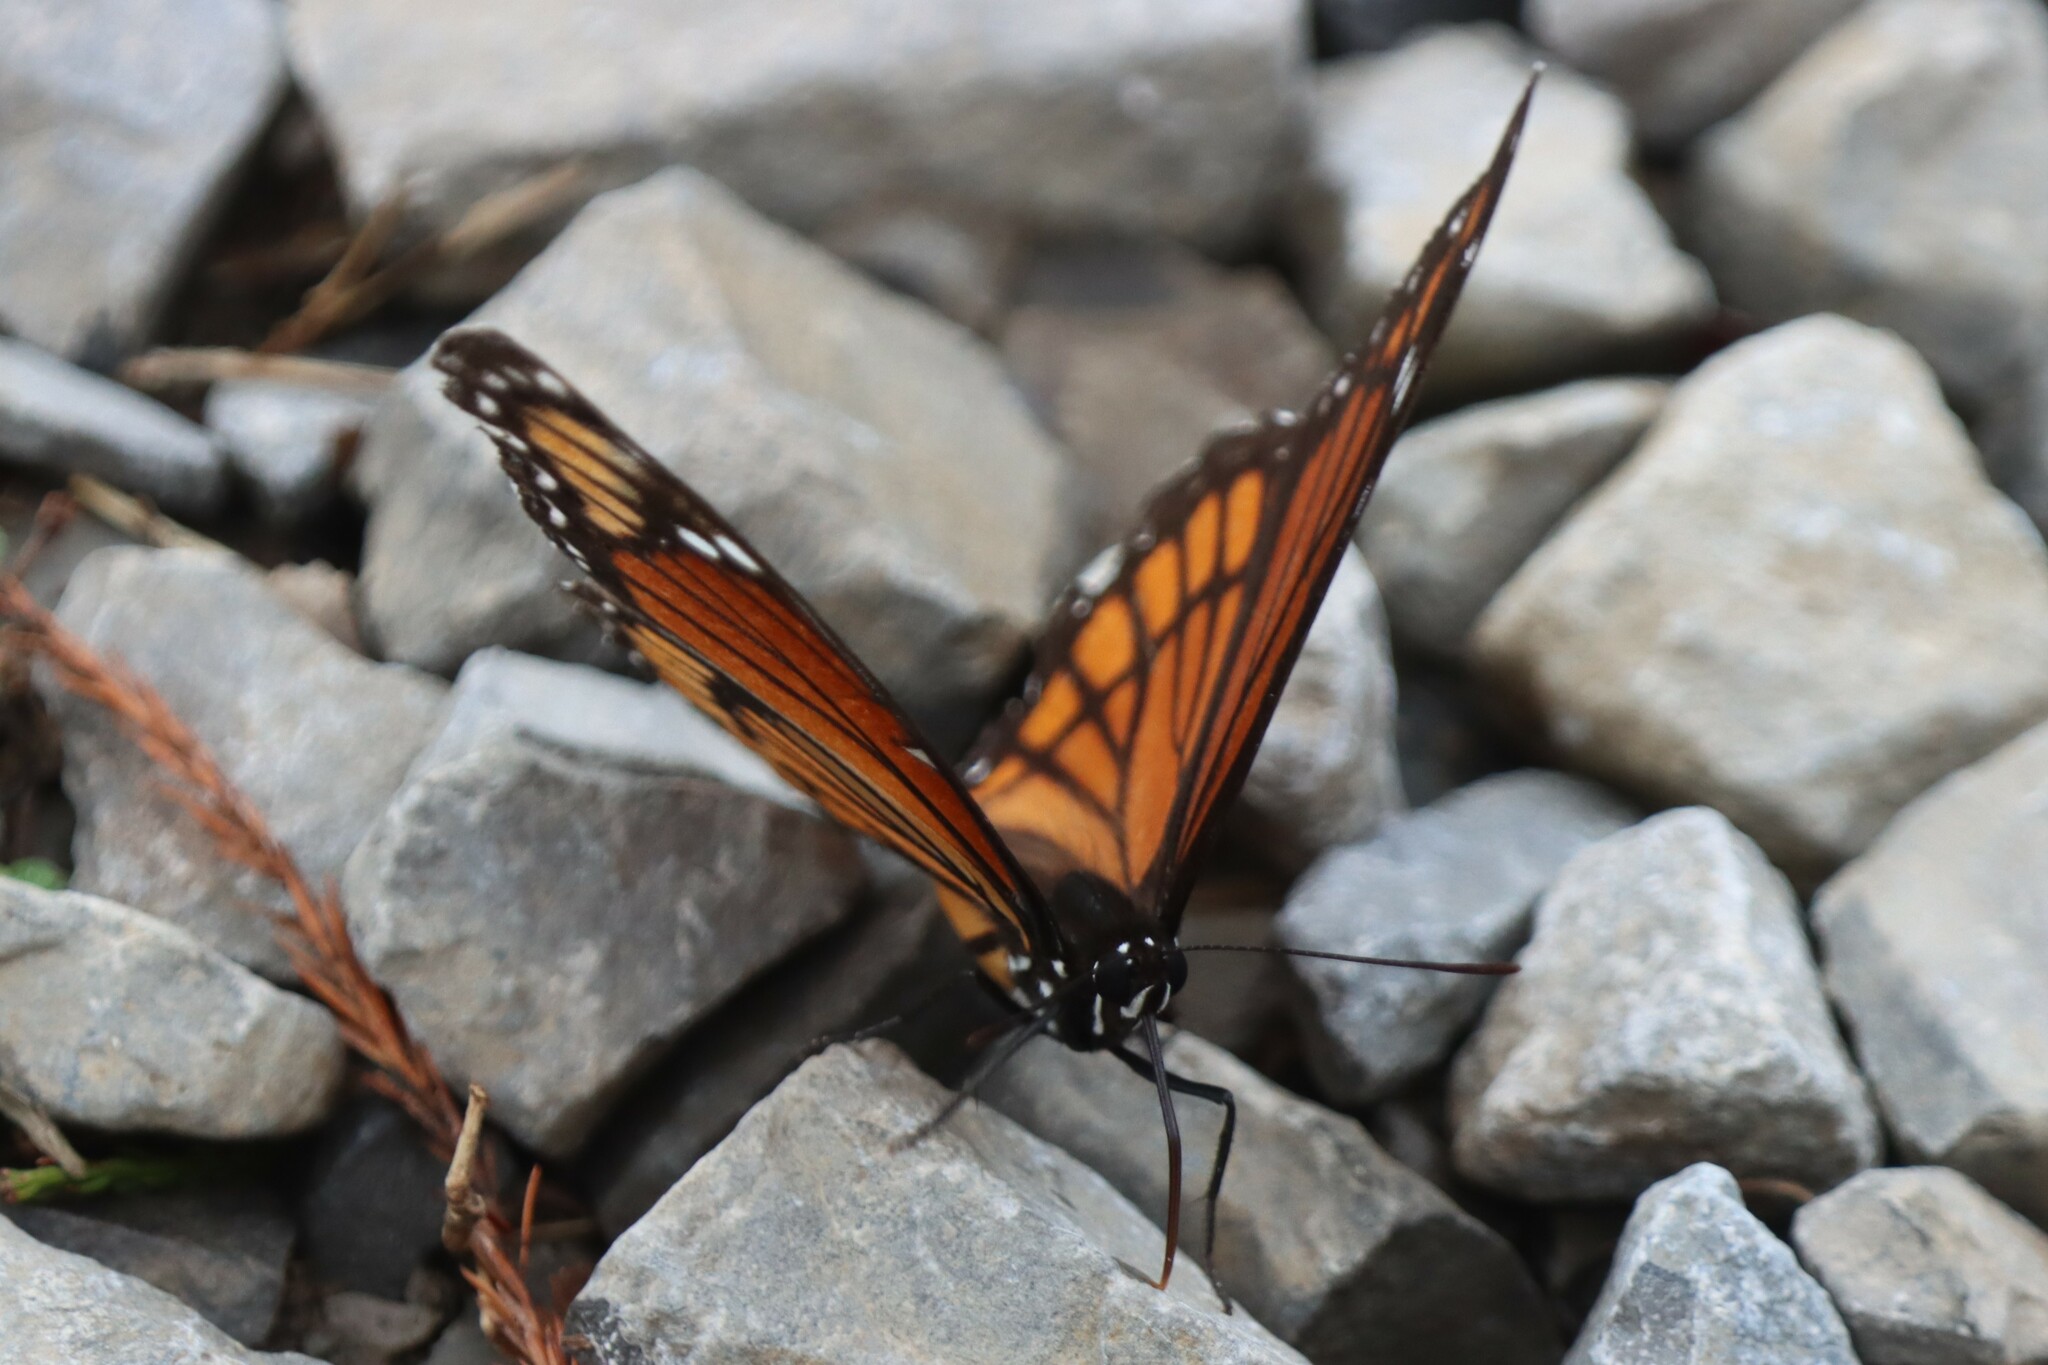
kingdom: Animalia
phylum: Arthropoda
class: Insecta
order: Lepidoptera
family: Nymphalidae
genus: Limenitis
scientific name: Limenitis archippus
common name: Viceroy
